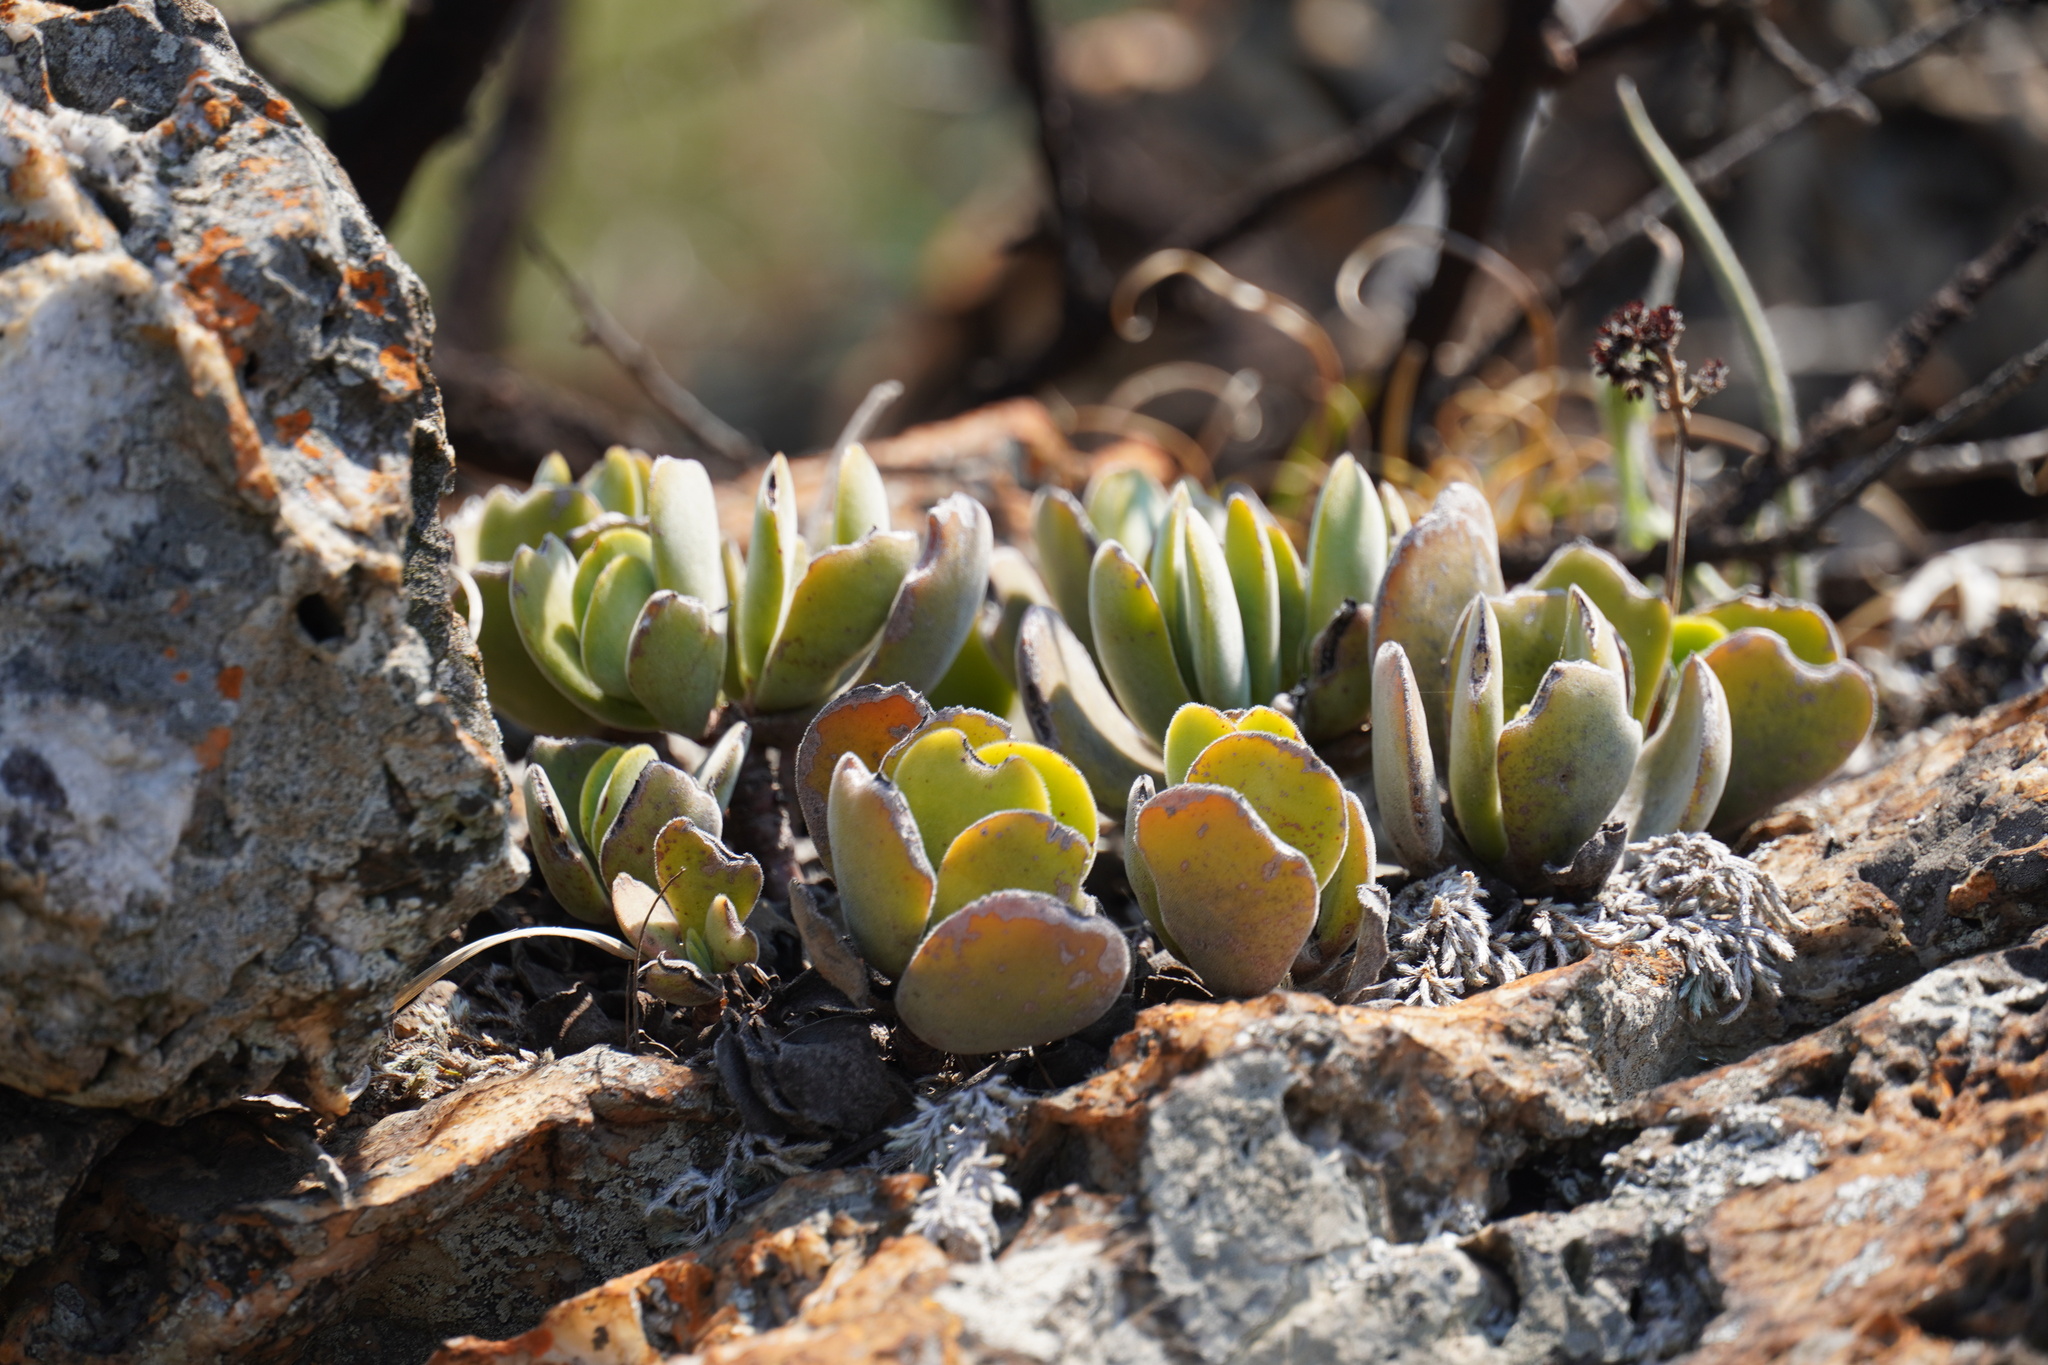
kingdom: Plantae
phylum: Tracheophyta
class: Magnoliopsida
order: Saxifragales
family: Crassulaceae
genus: Crassula
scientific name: Crassula globularioides
